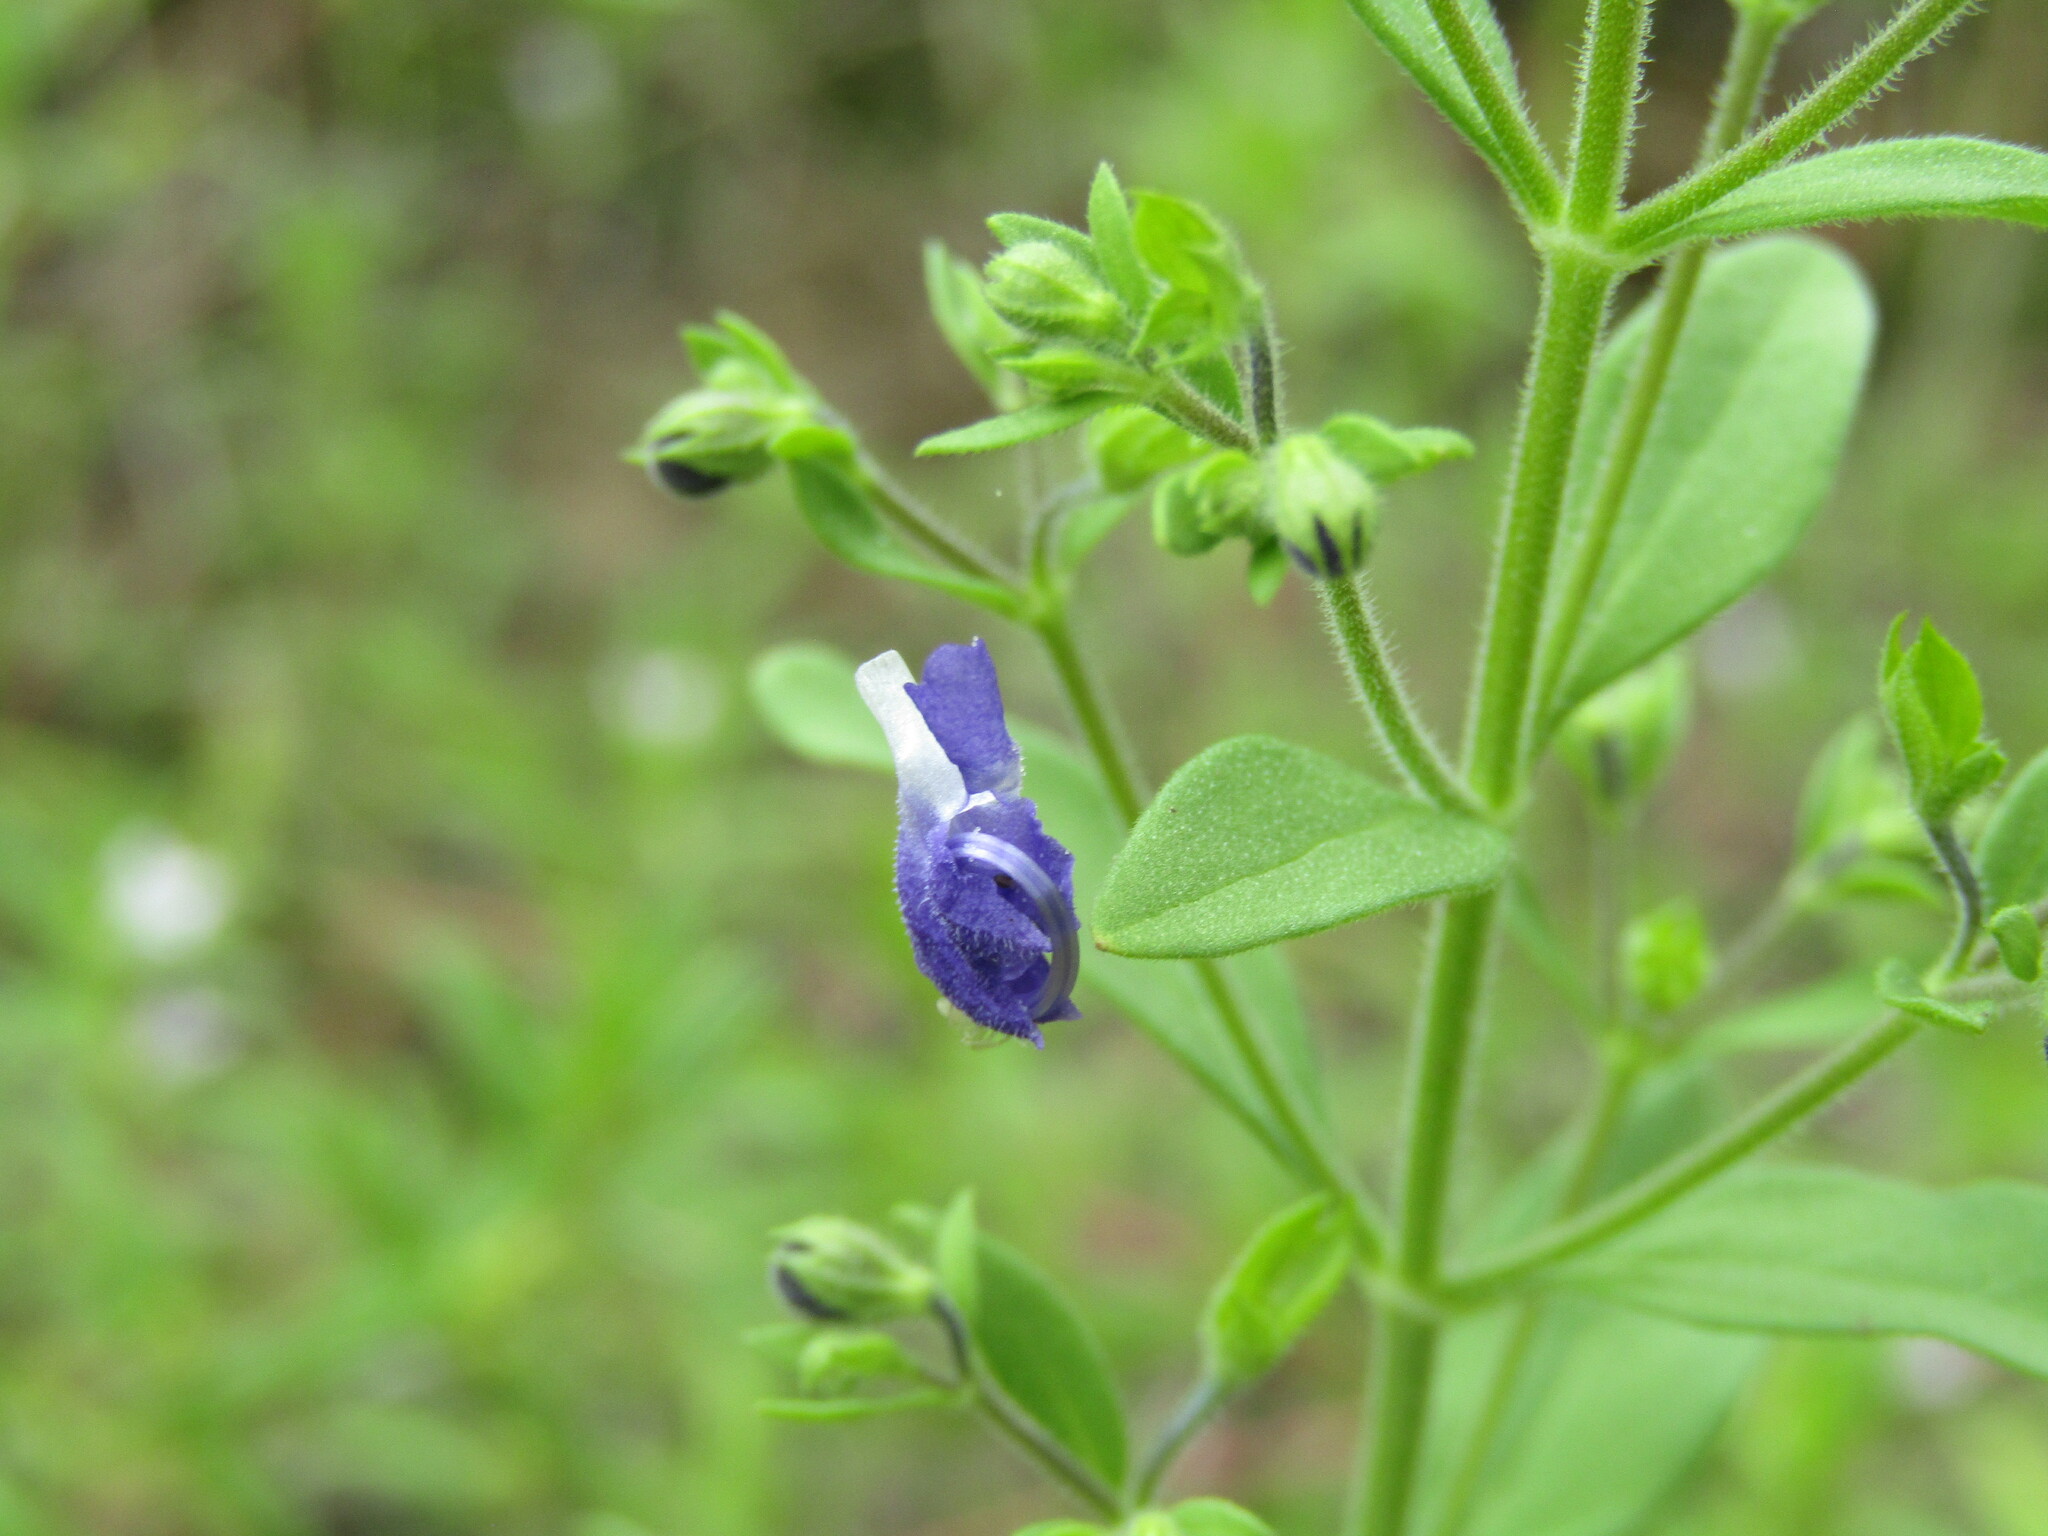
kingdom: Plantae
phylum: Tracheophyta
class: Magnoliopsida
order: Lamiales
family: Lamiaceae
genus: Trichostema
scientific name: Trichostema dichotomum
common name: Bastard pennyroyal
